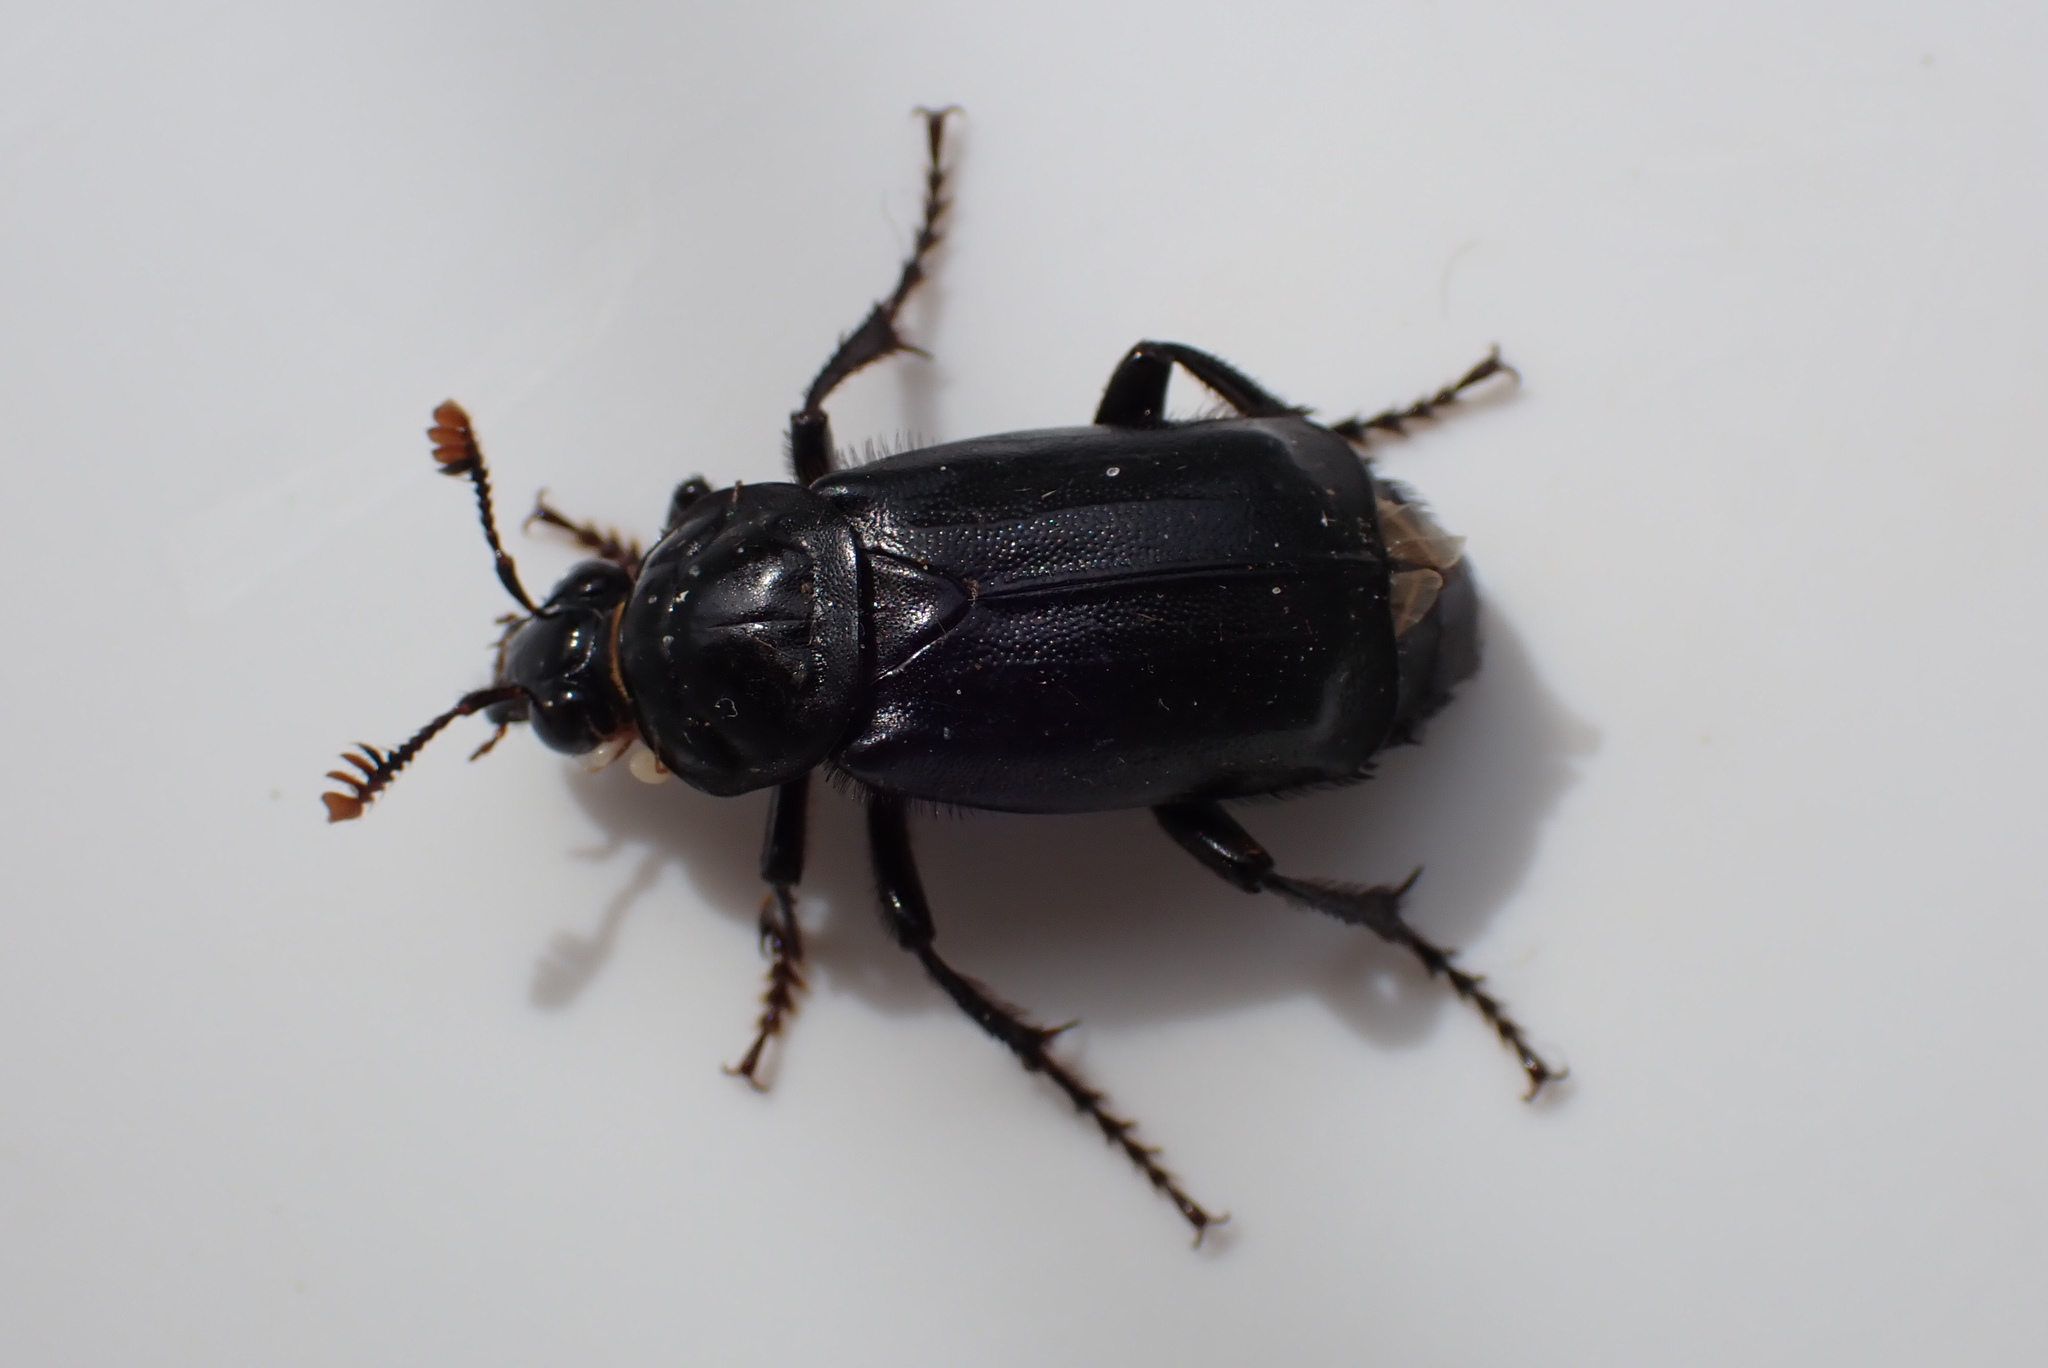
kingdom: Animalia
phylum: Arthropoda
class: Insecta
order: Coleoptera
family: Staphylinidae
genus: Nicrophorus
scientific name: Nicrophorus humator
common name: Black sexton beetle
